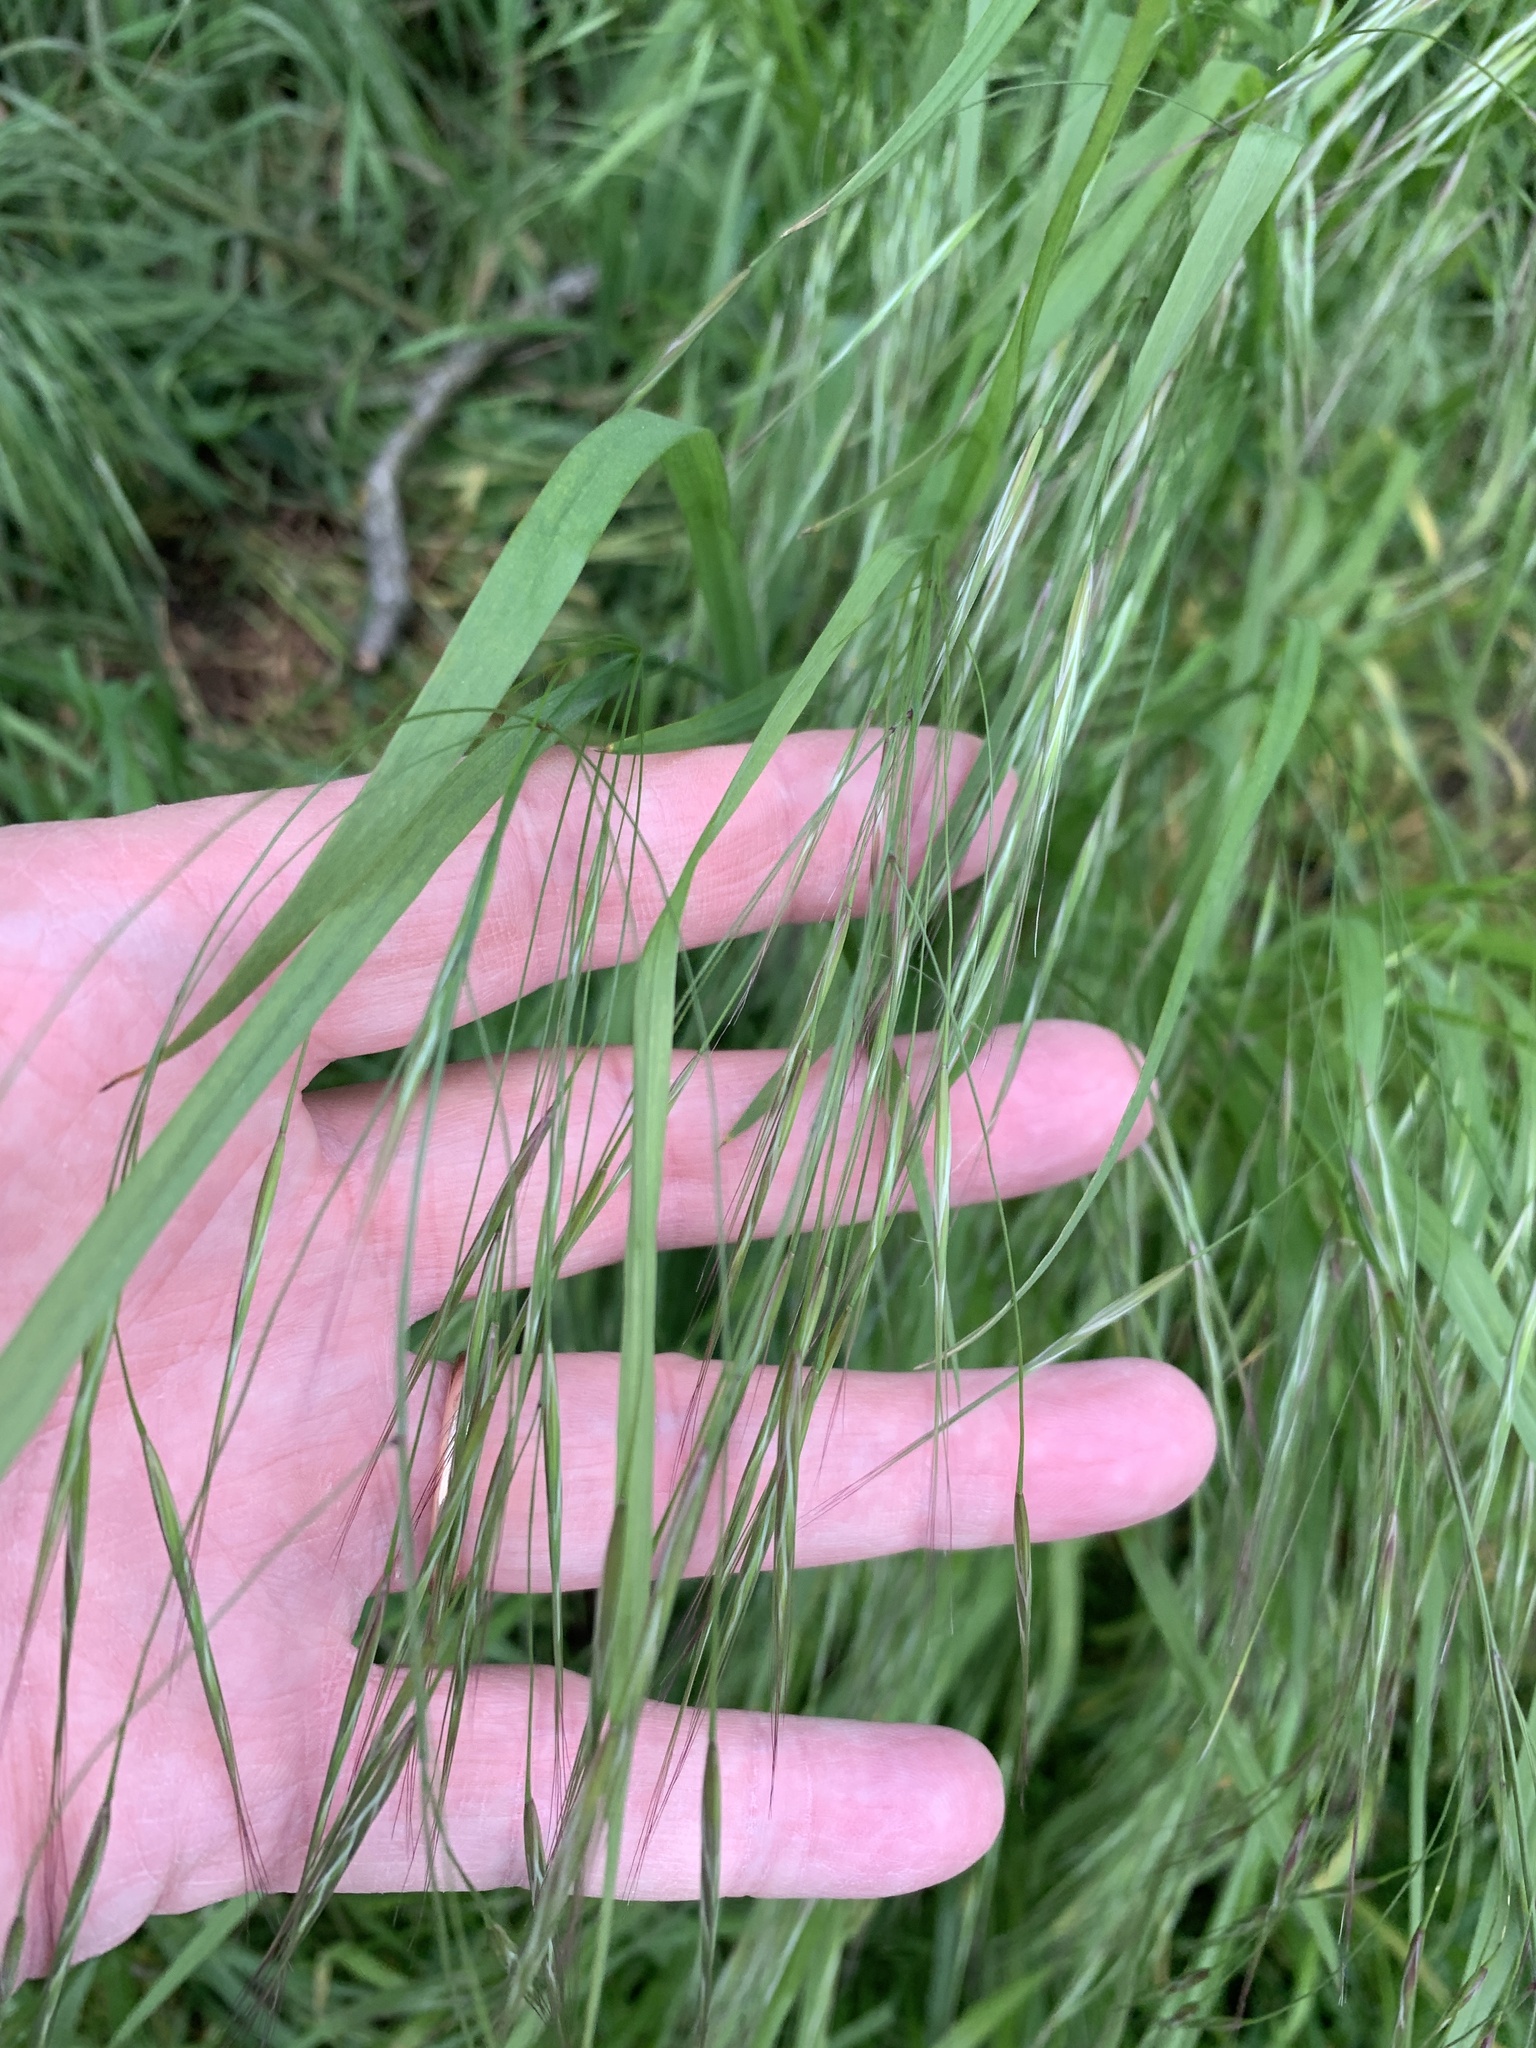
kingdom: Plantae
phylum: Tracheophyta
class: Liliopsida
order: Poales
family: Poaceae
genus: Bromus
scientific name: Bromus sterilis
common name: Poverty brome
